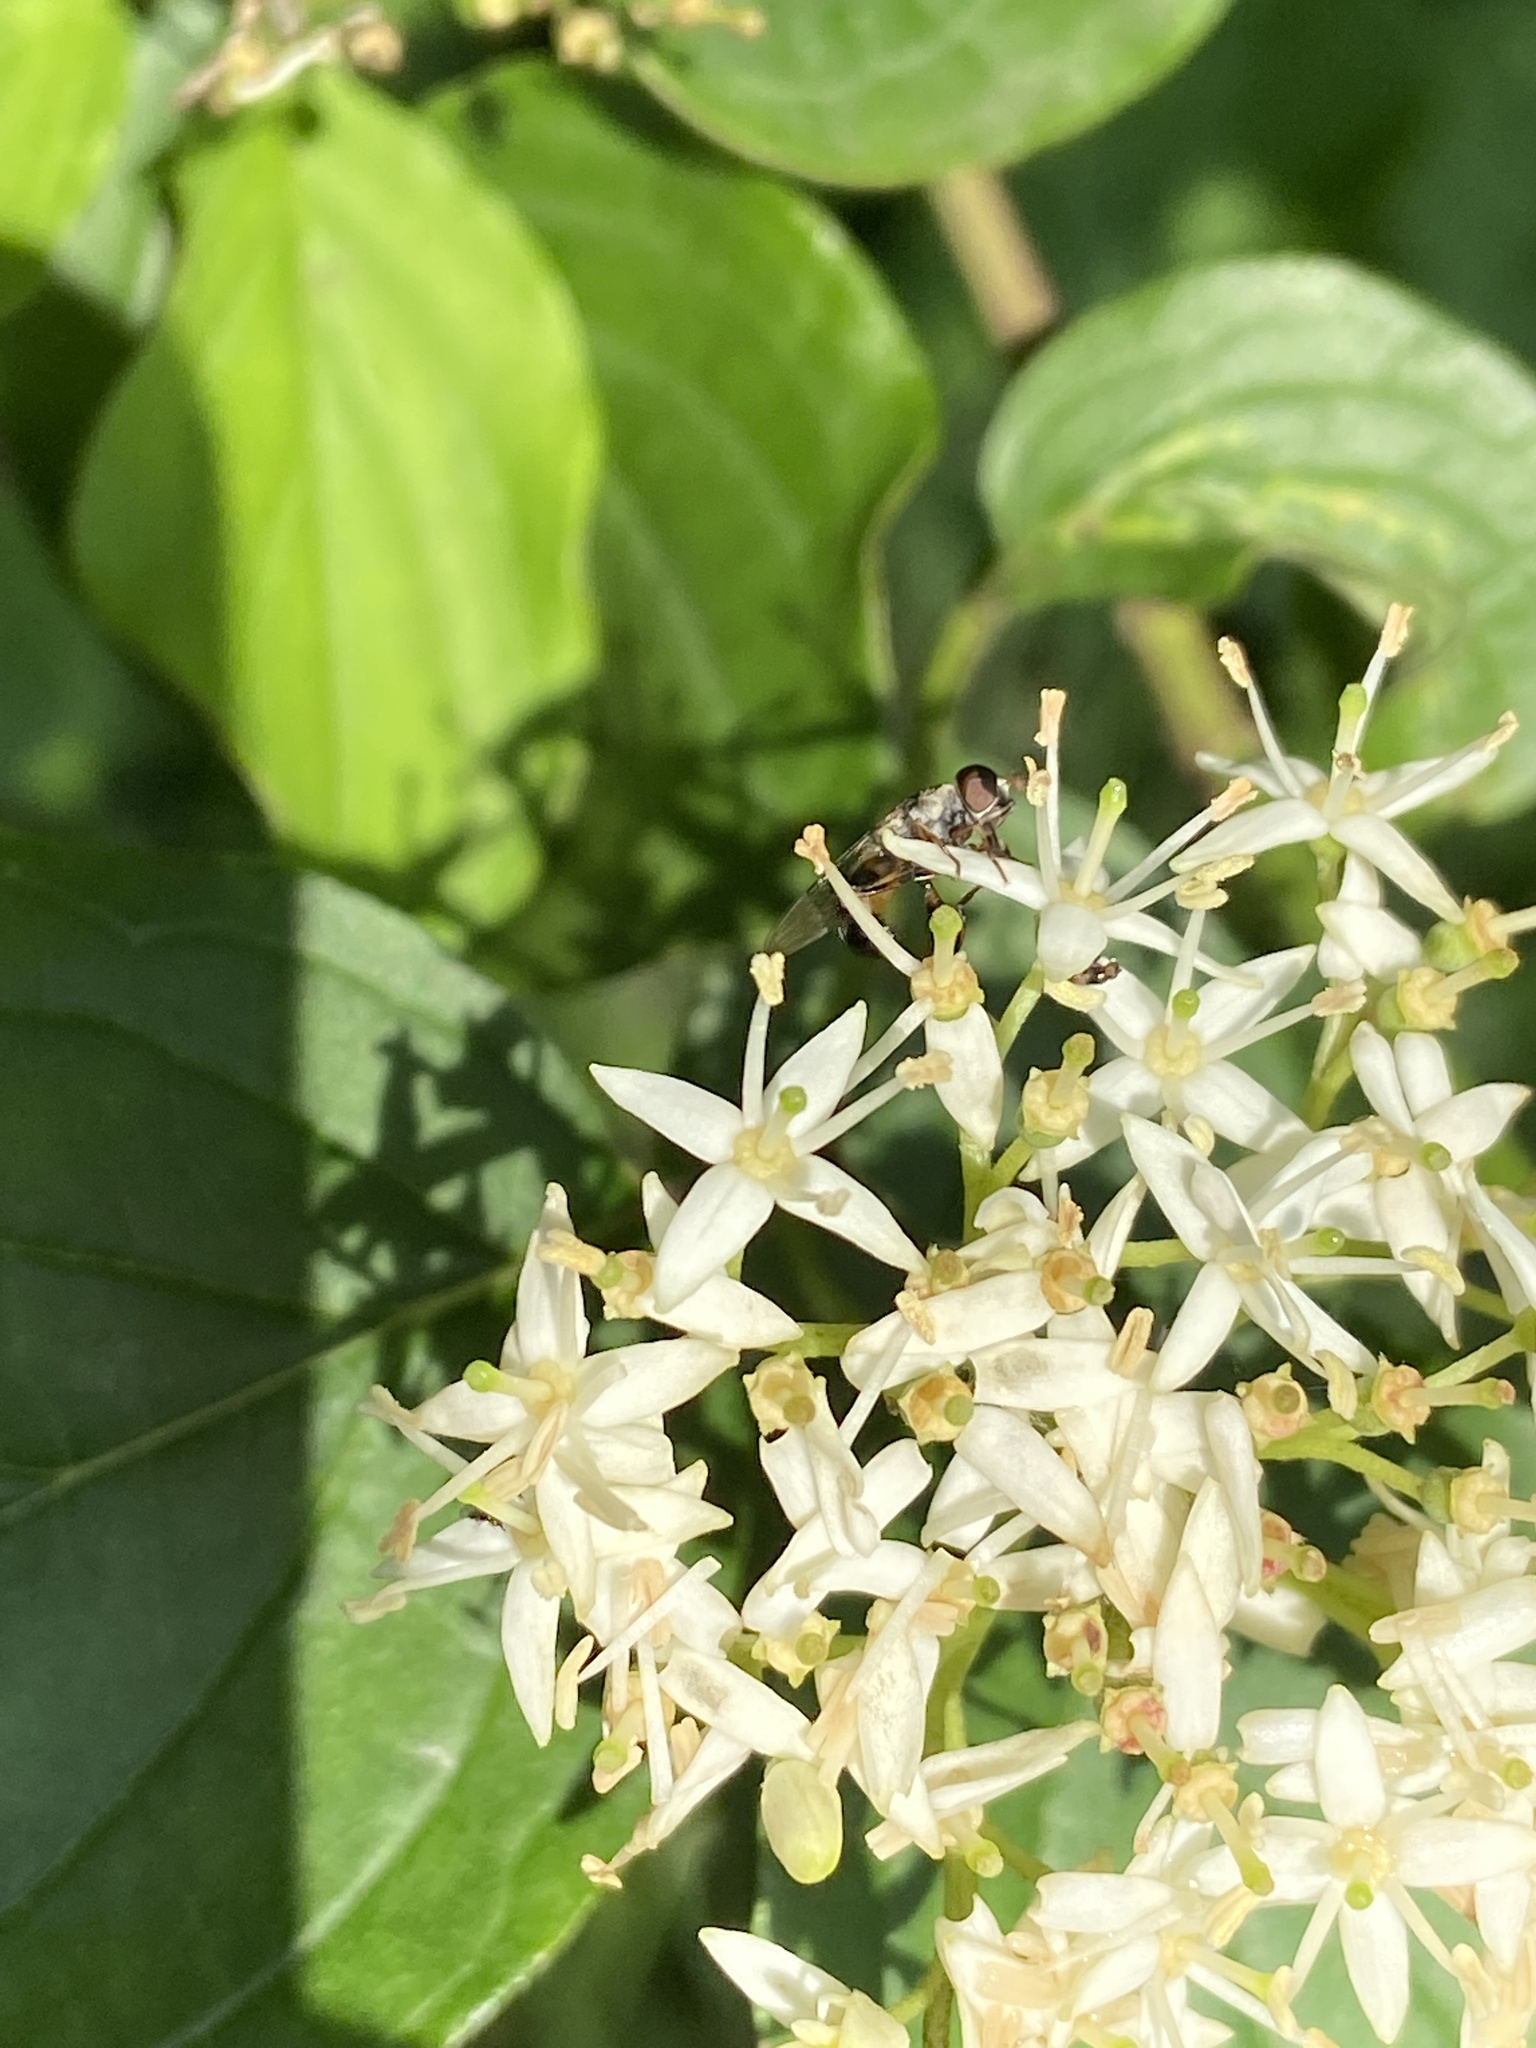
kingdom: Animalia
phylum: Arthropoda
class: Insecta
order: Diptera
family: Syrphidae
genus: Syritta
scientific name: Syritta pipiens
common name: Hover fly
